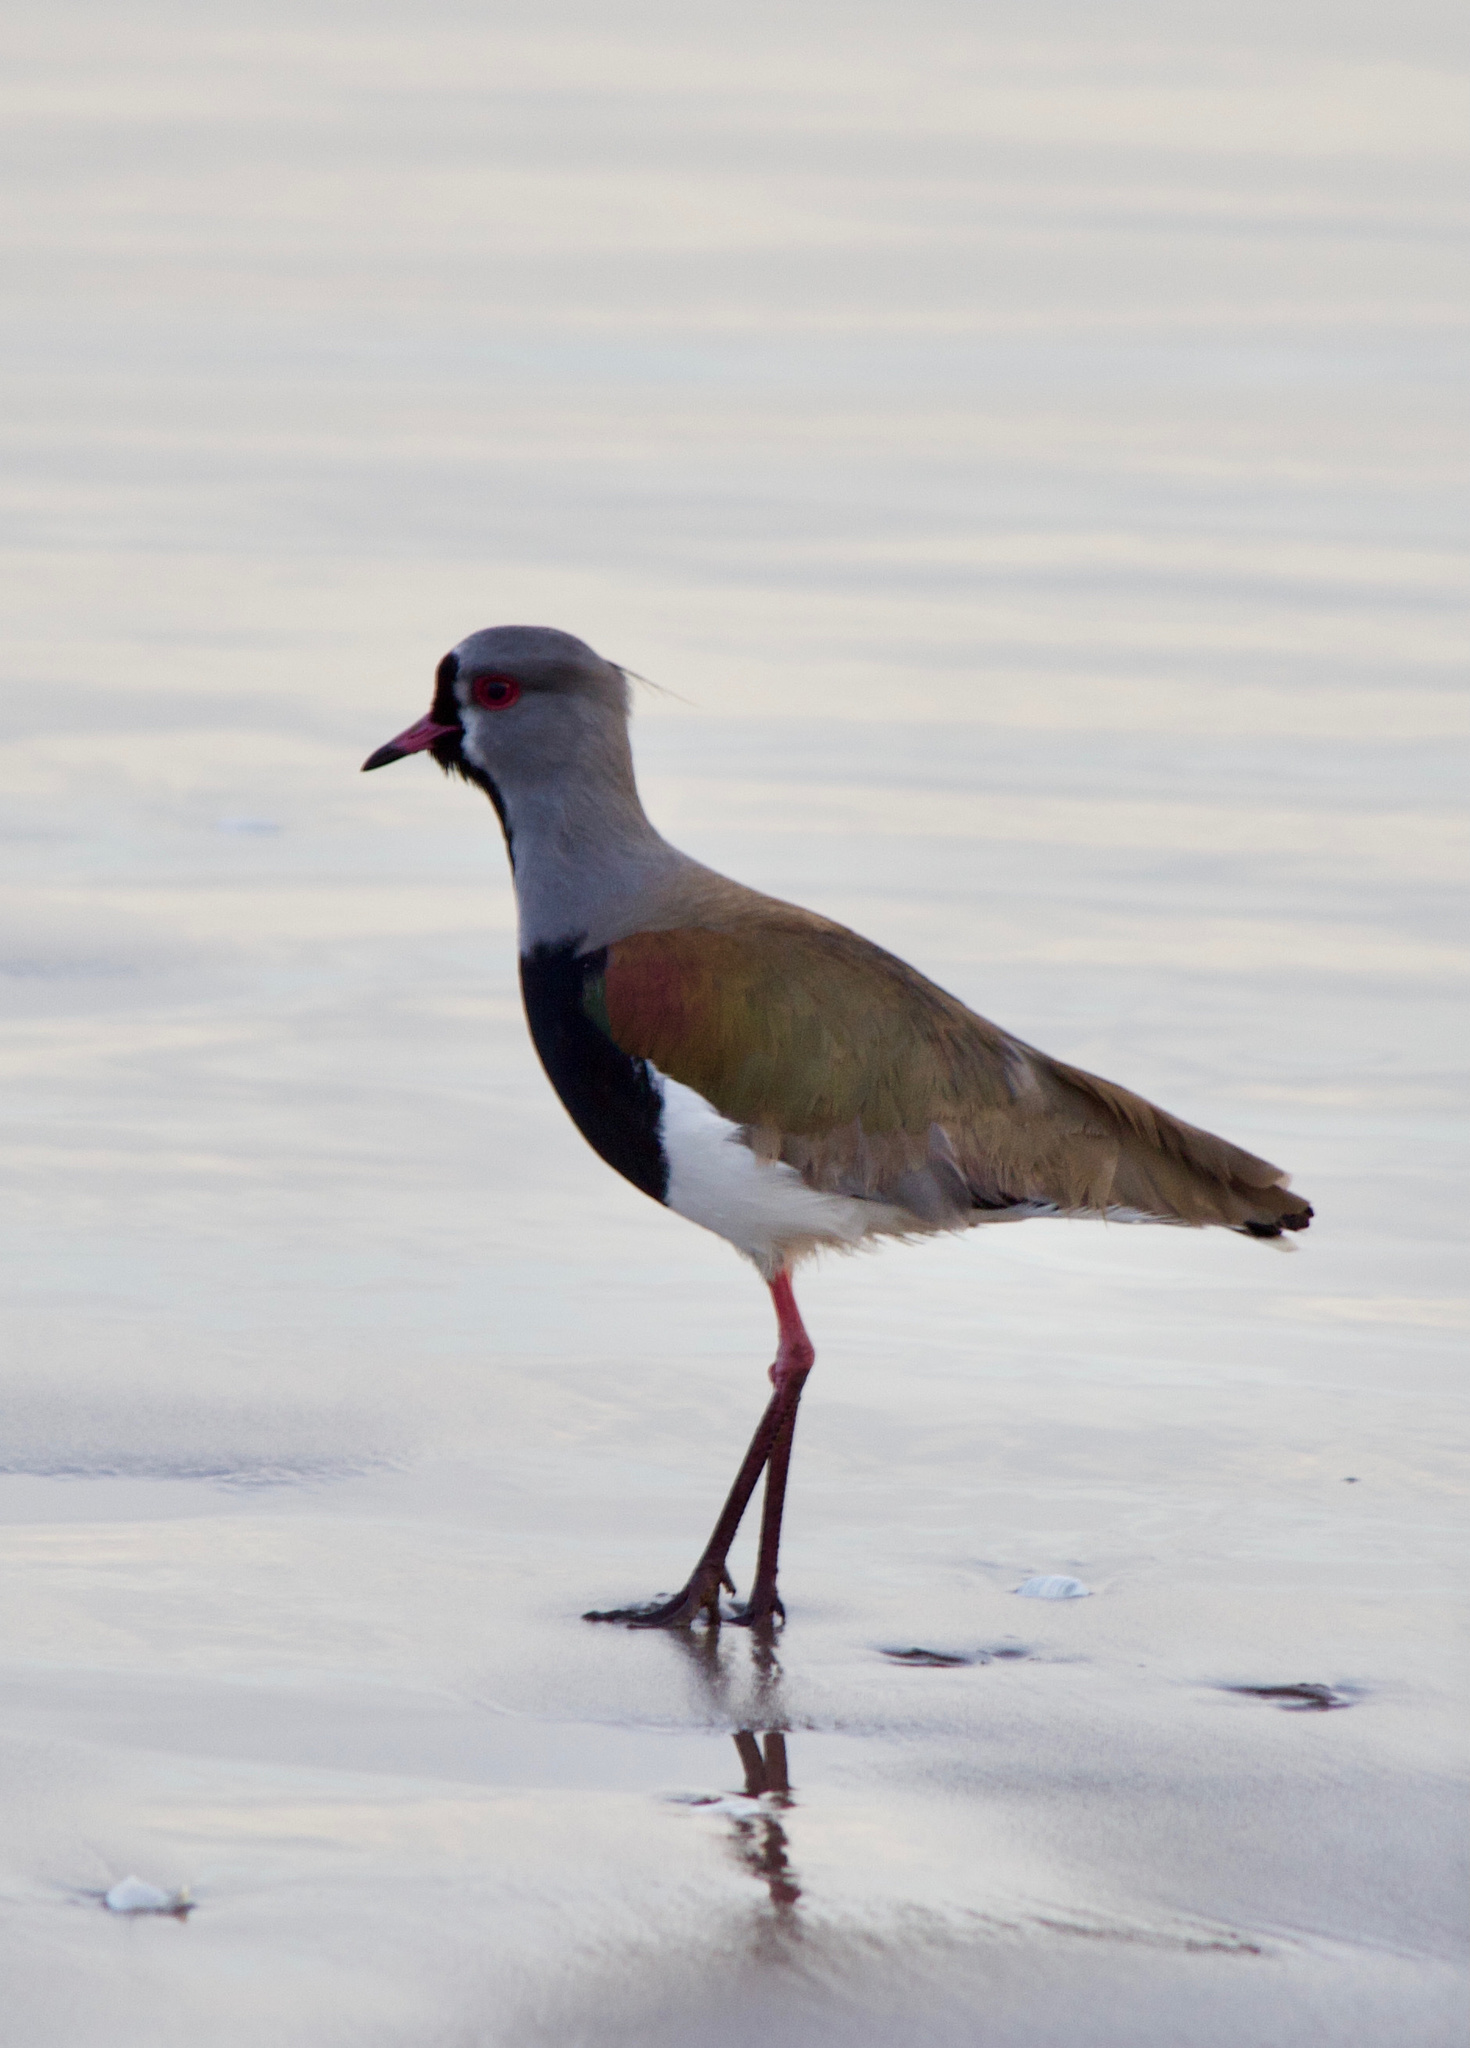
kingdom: Animalia
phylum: Chordata
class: Aves
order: Charadriiformes
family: Charadriidae
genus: Vanellus
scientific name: Vanellus chilensis
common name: Southern lapwing
